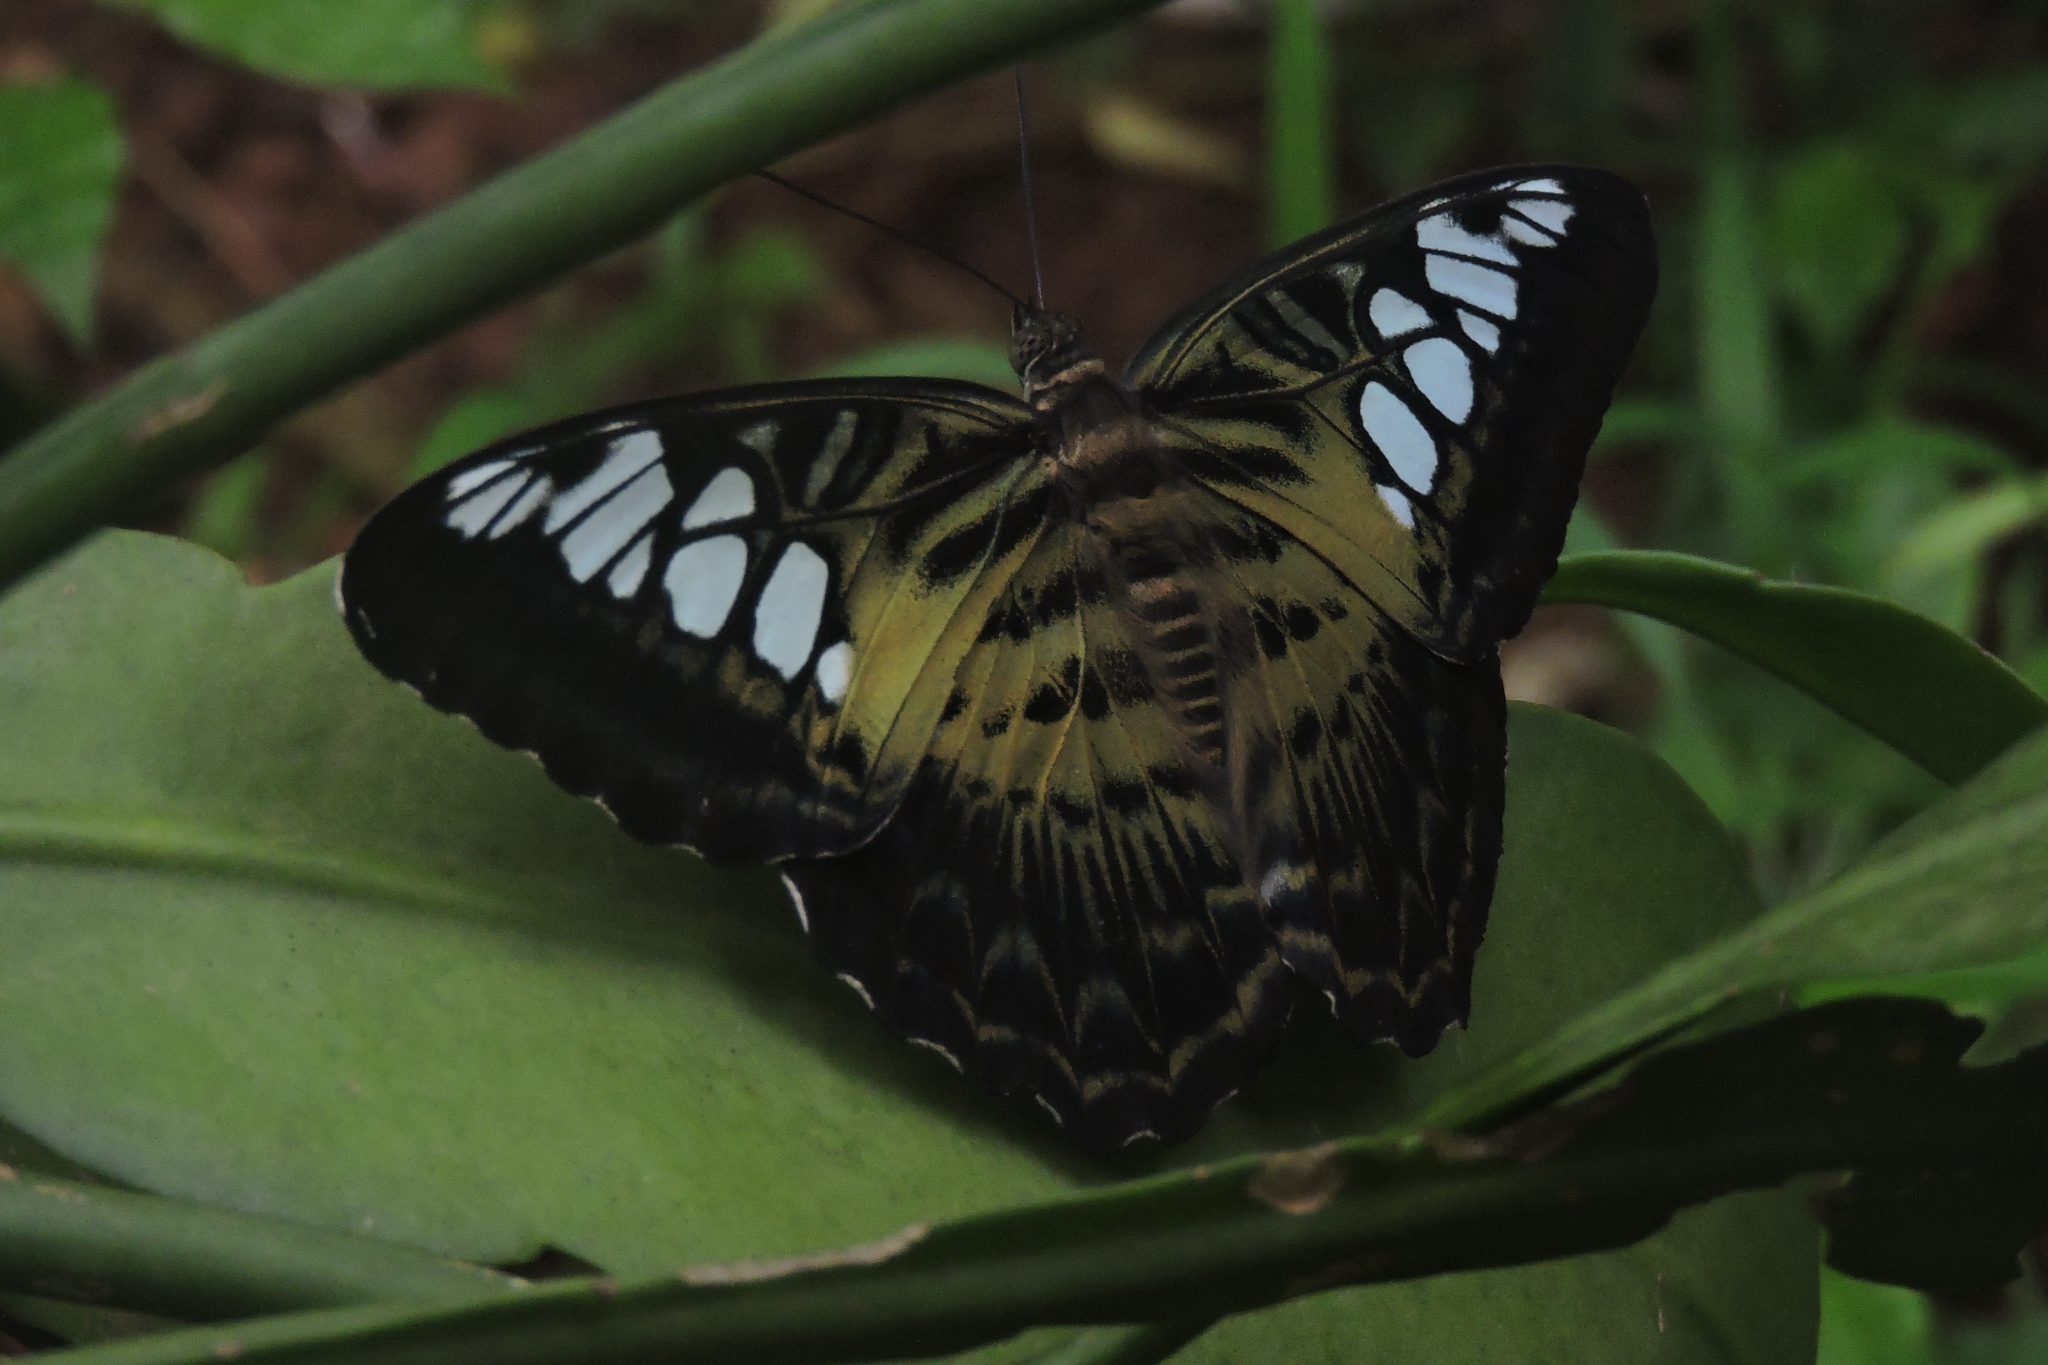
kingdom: Animalia
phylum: Arthropoda
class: Insecta
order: Lepidoptera
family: Nymphalidae
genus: Kallima
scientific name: Kallima sylvia
